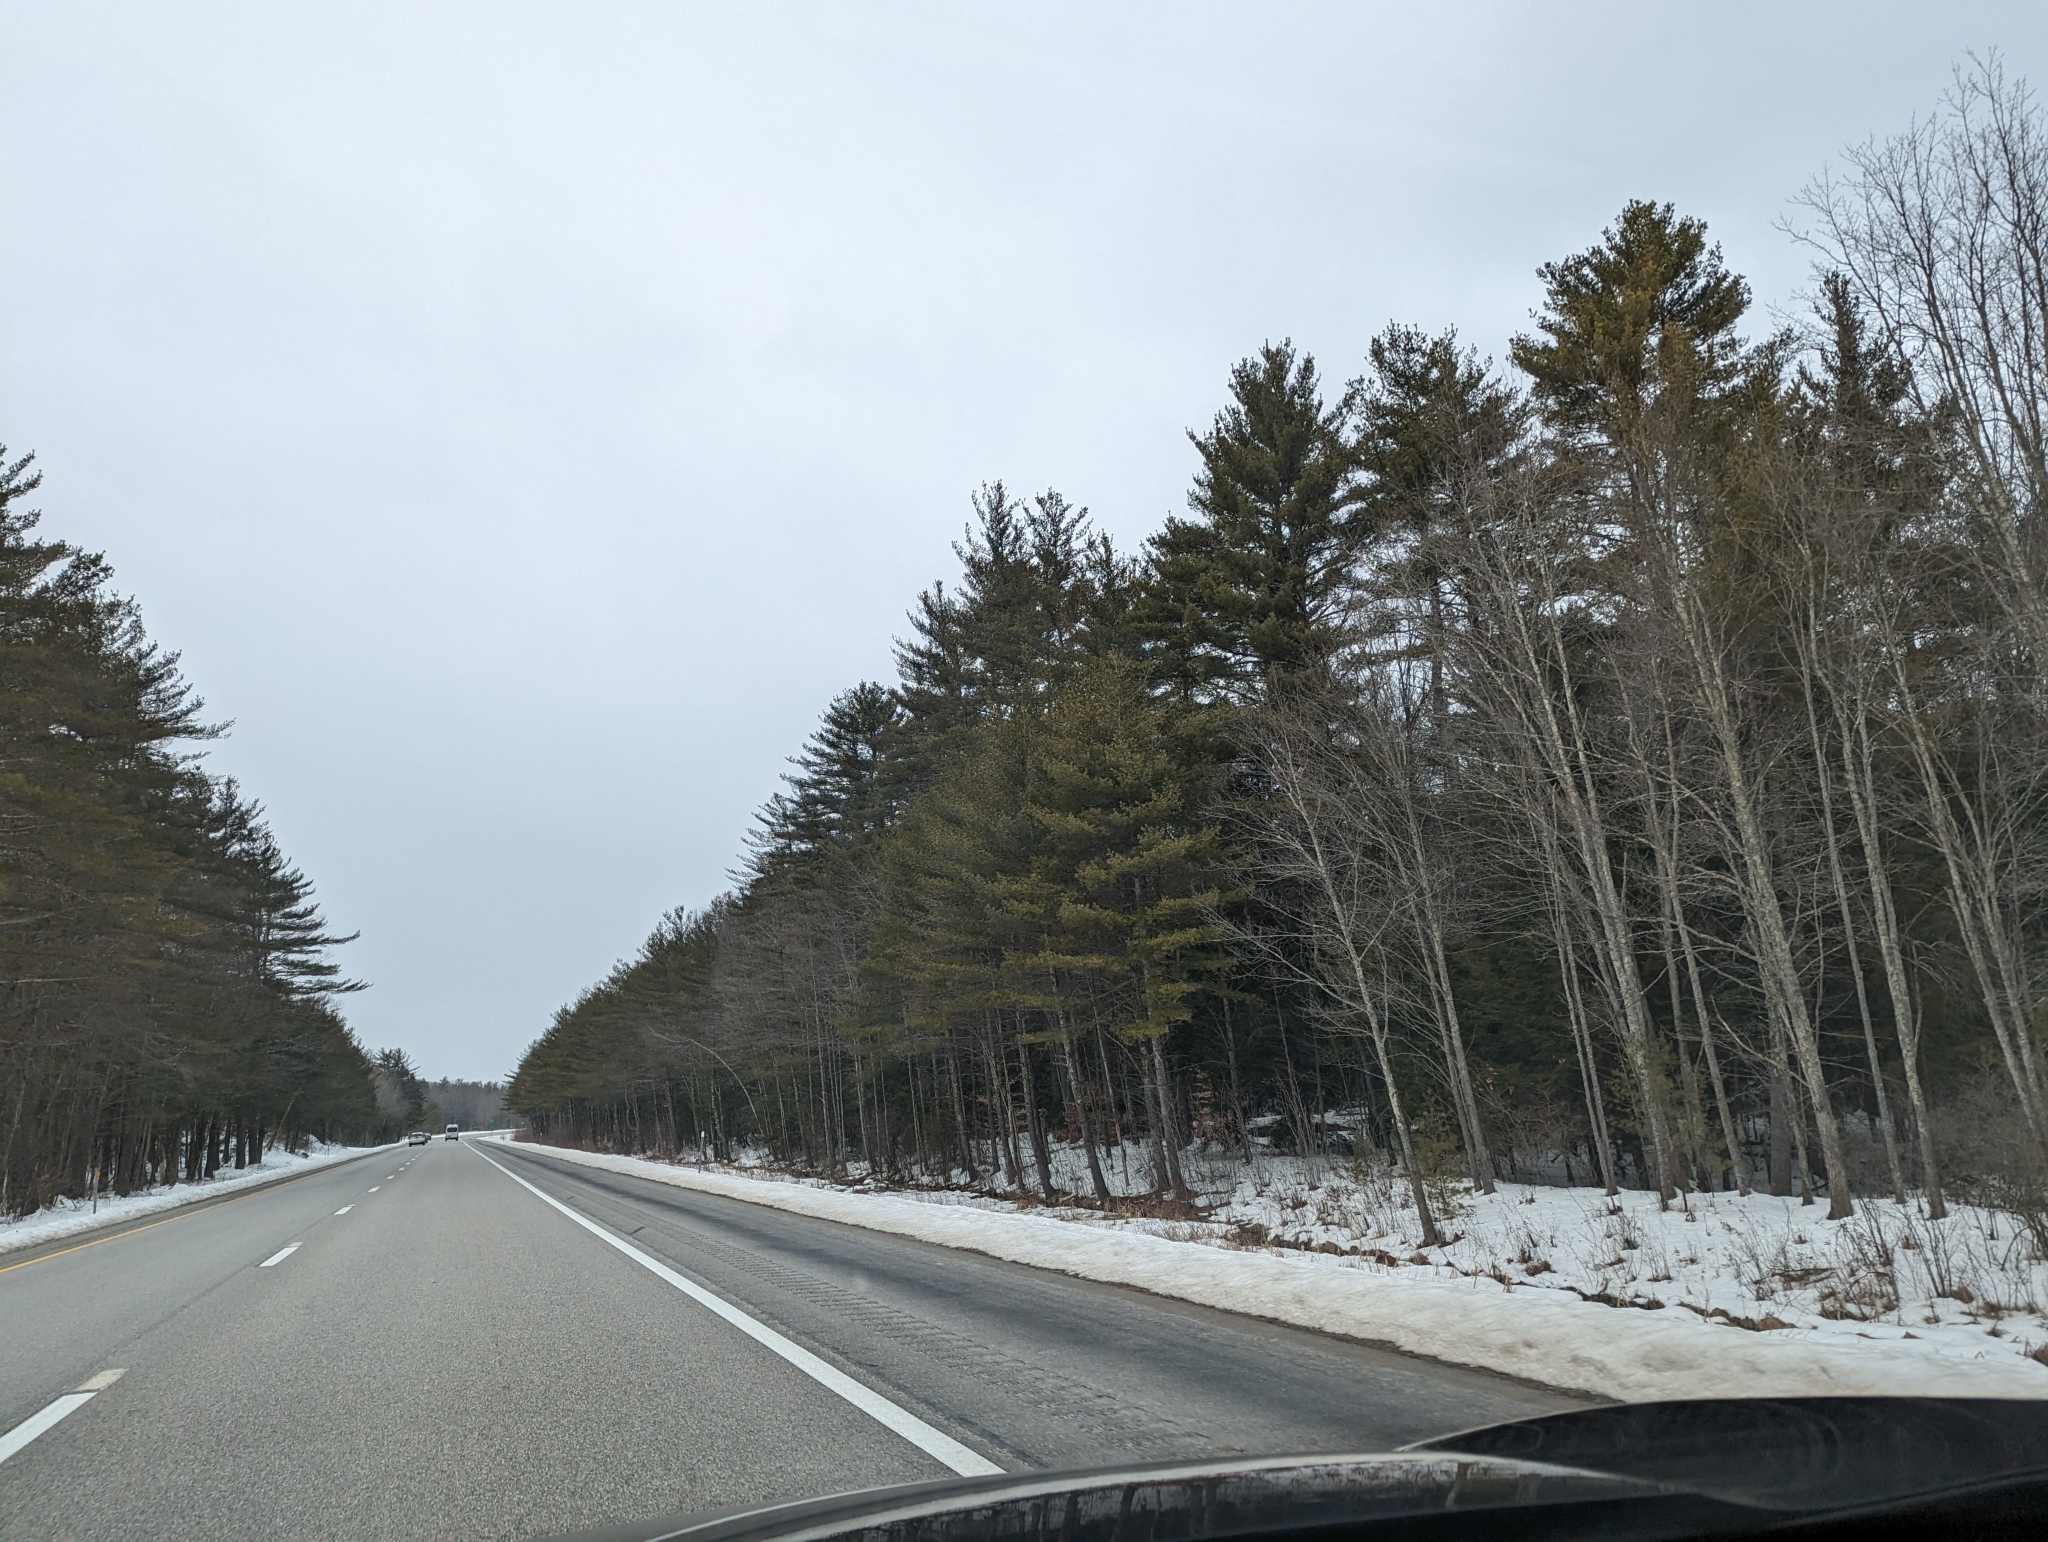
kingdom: Plantae
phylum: Tracheophyta
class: Pinopsida
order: Pinales
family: Pinaceae
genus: Pinus
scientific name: Pinus strobus
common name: Weymouth pine
